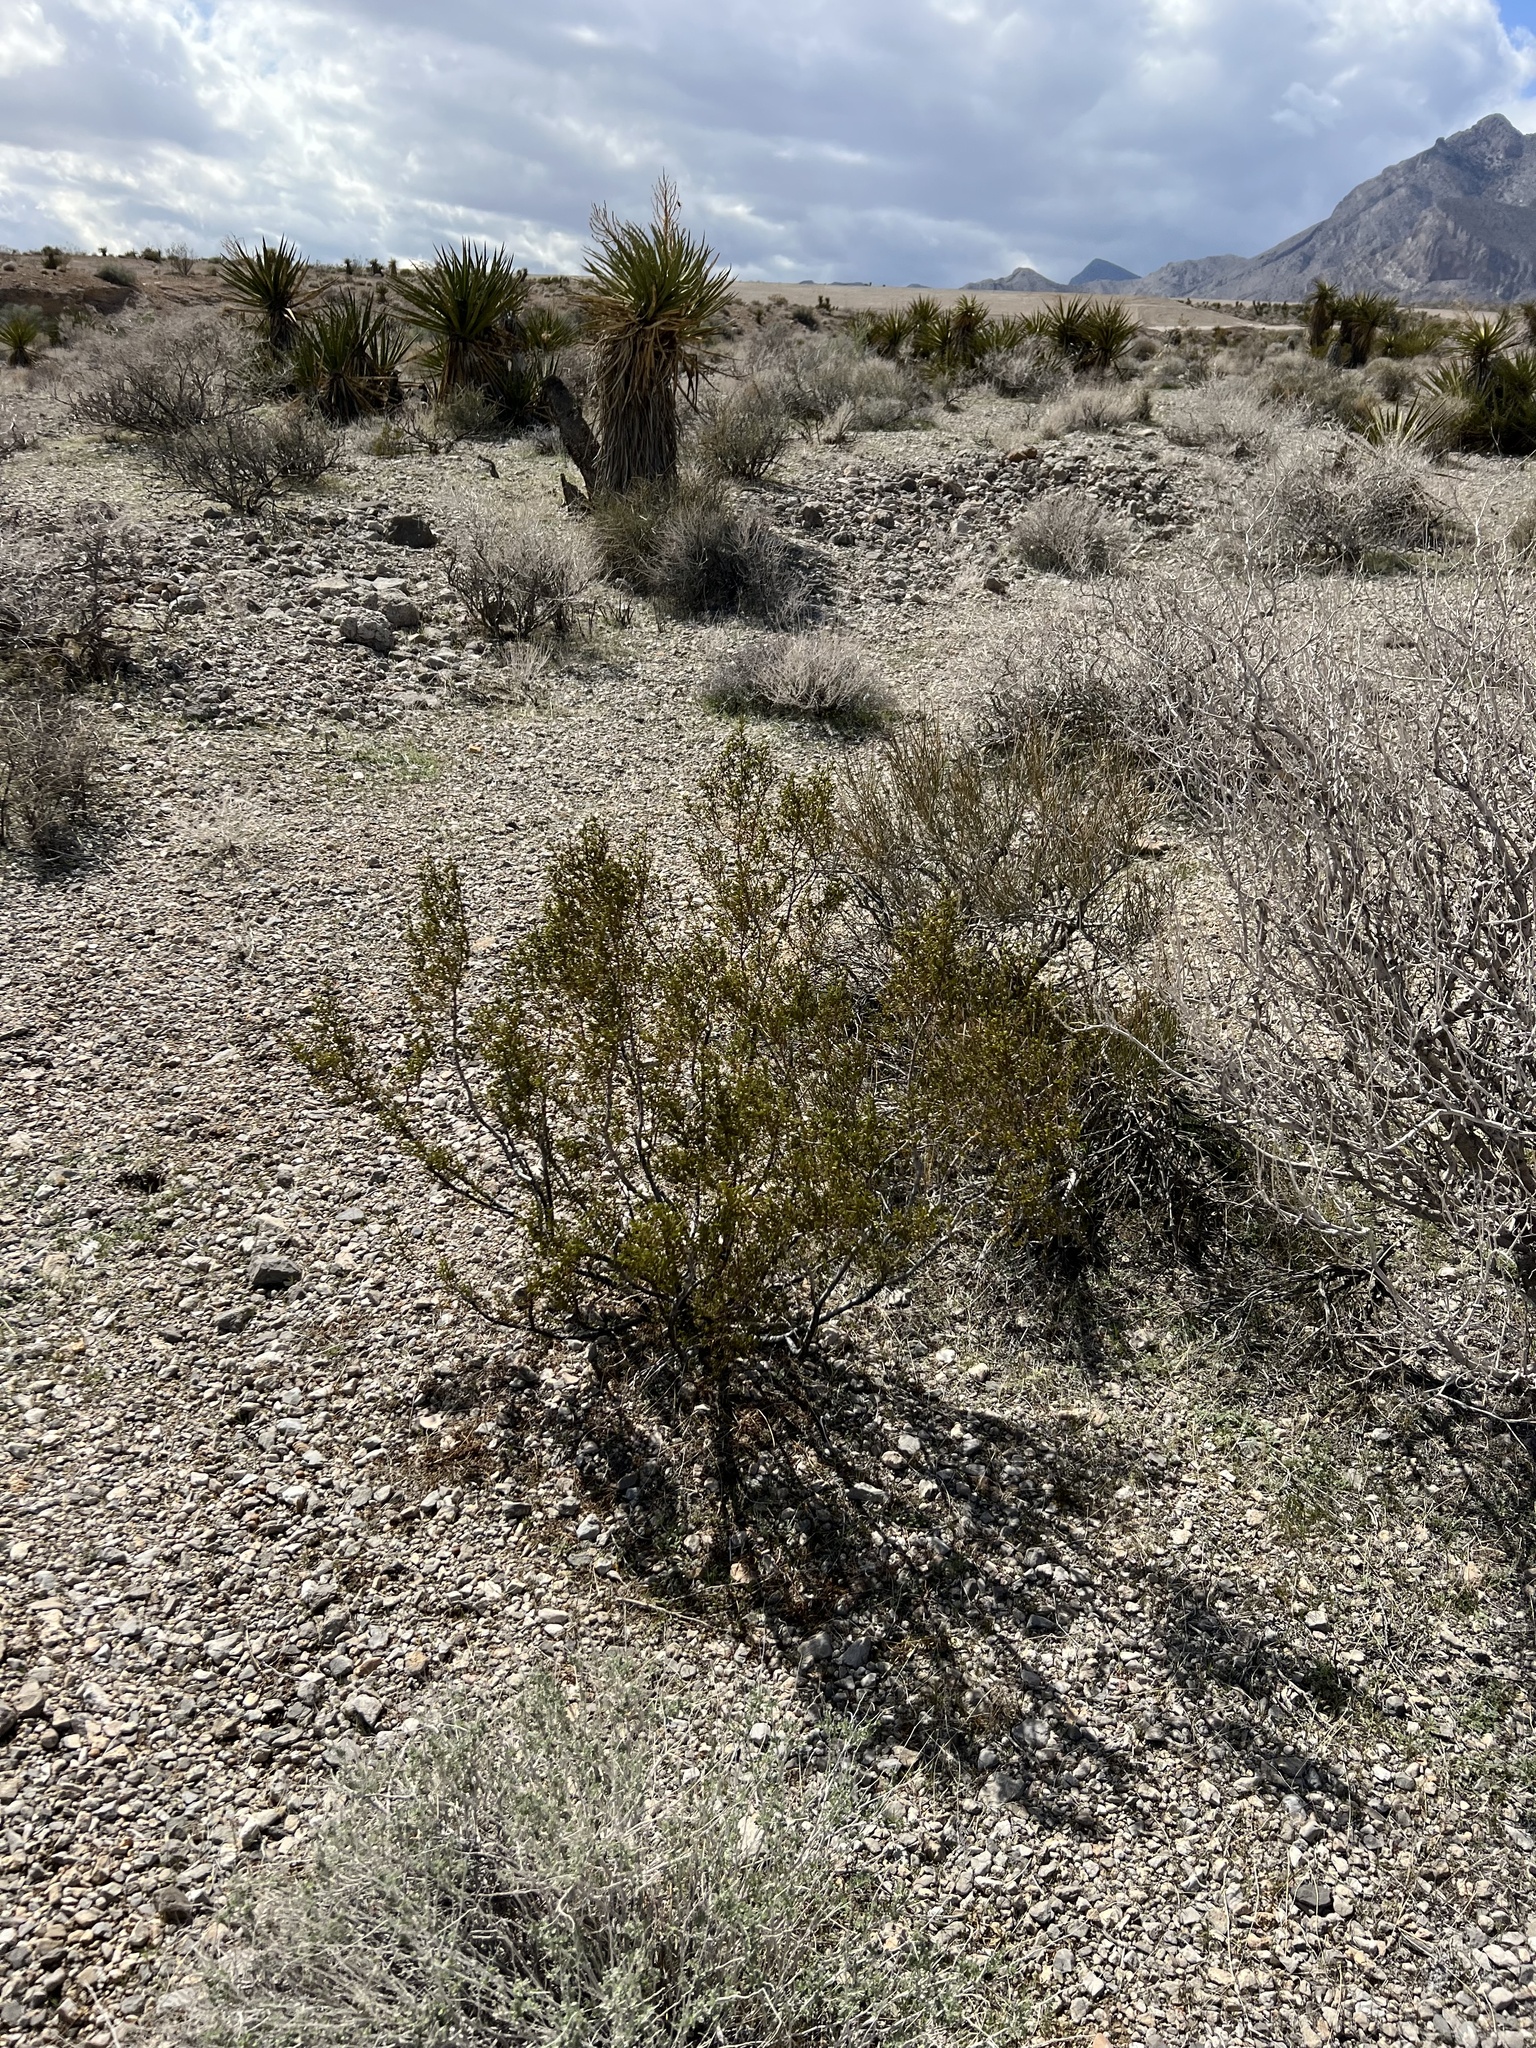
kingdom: Plantae
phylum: Tracheophyta
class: Magnoliopsida
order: Zygophyllales
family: Zygophyllaceae
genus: Larrea
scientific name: Larrea tridentata
